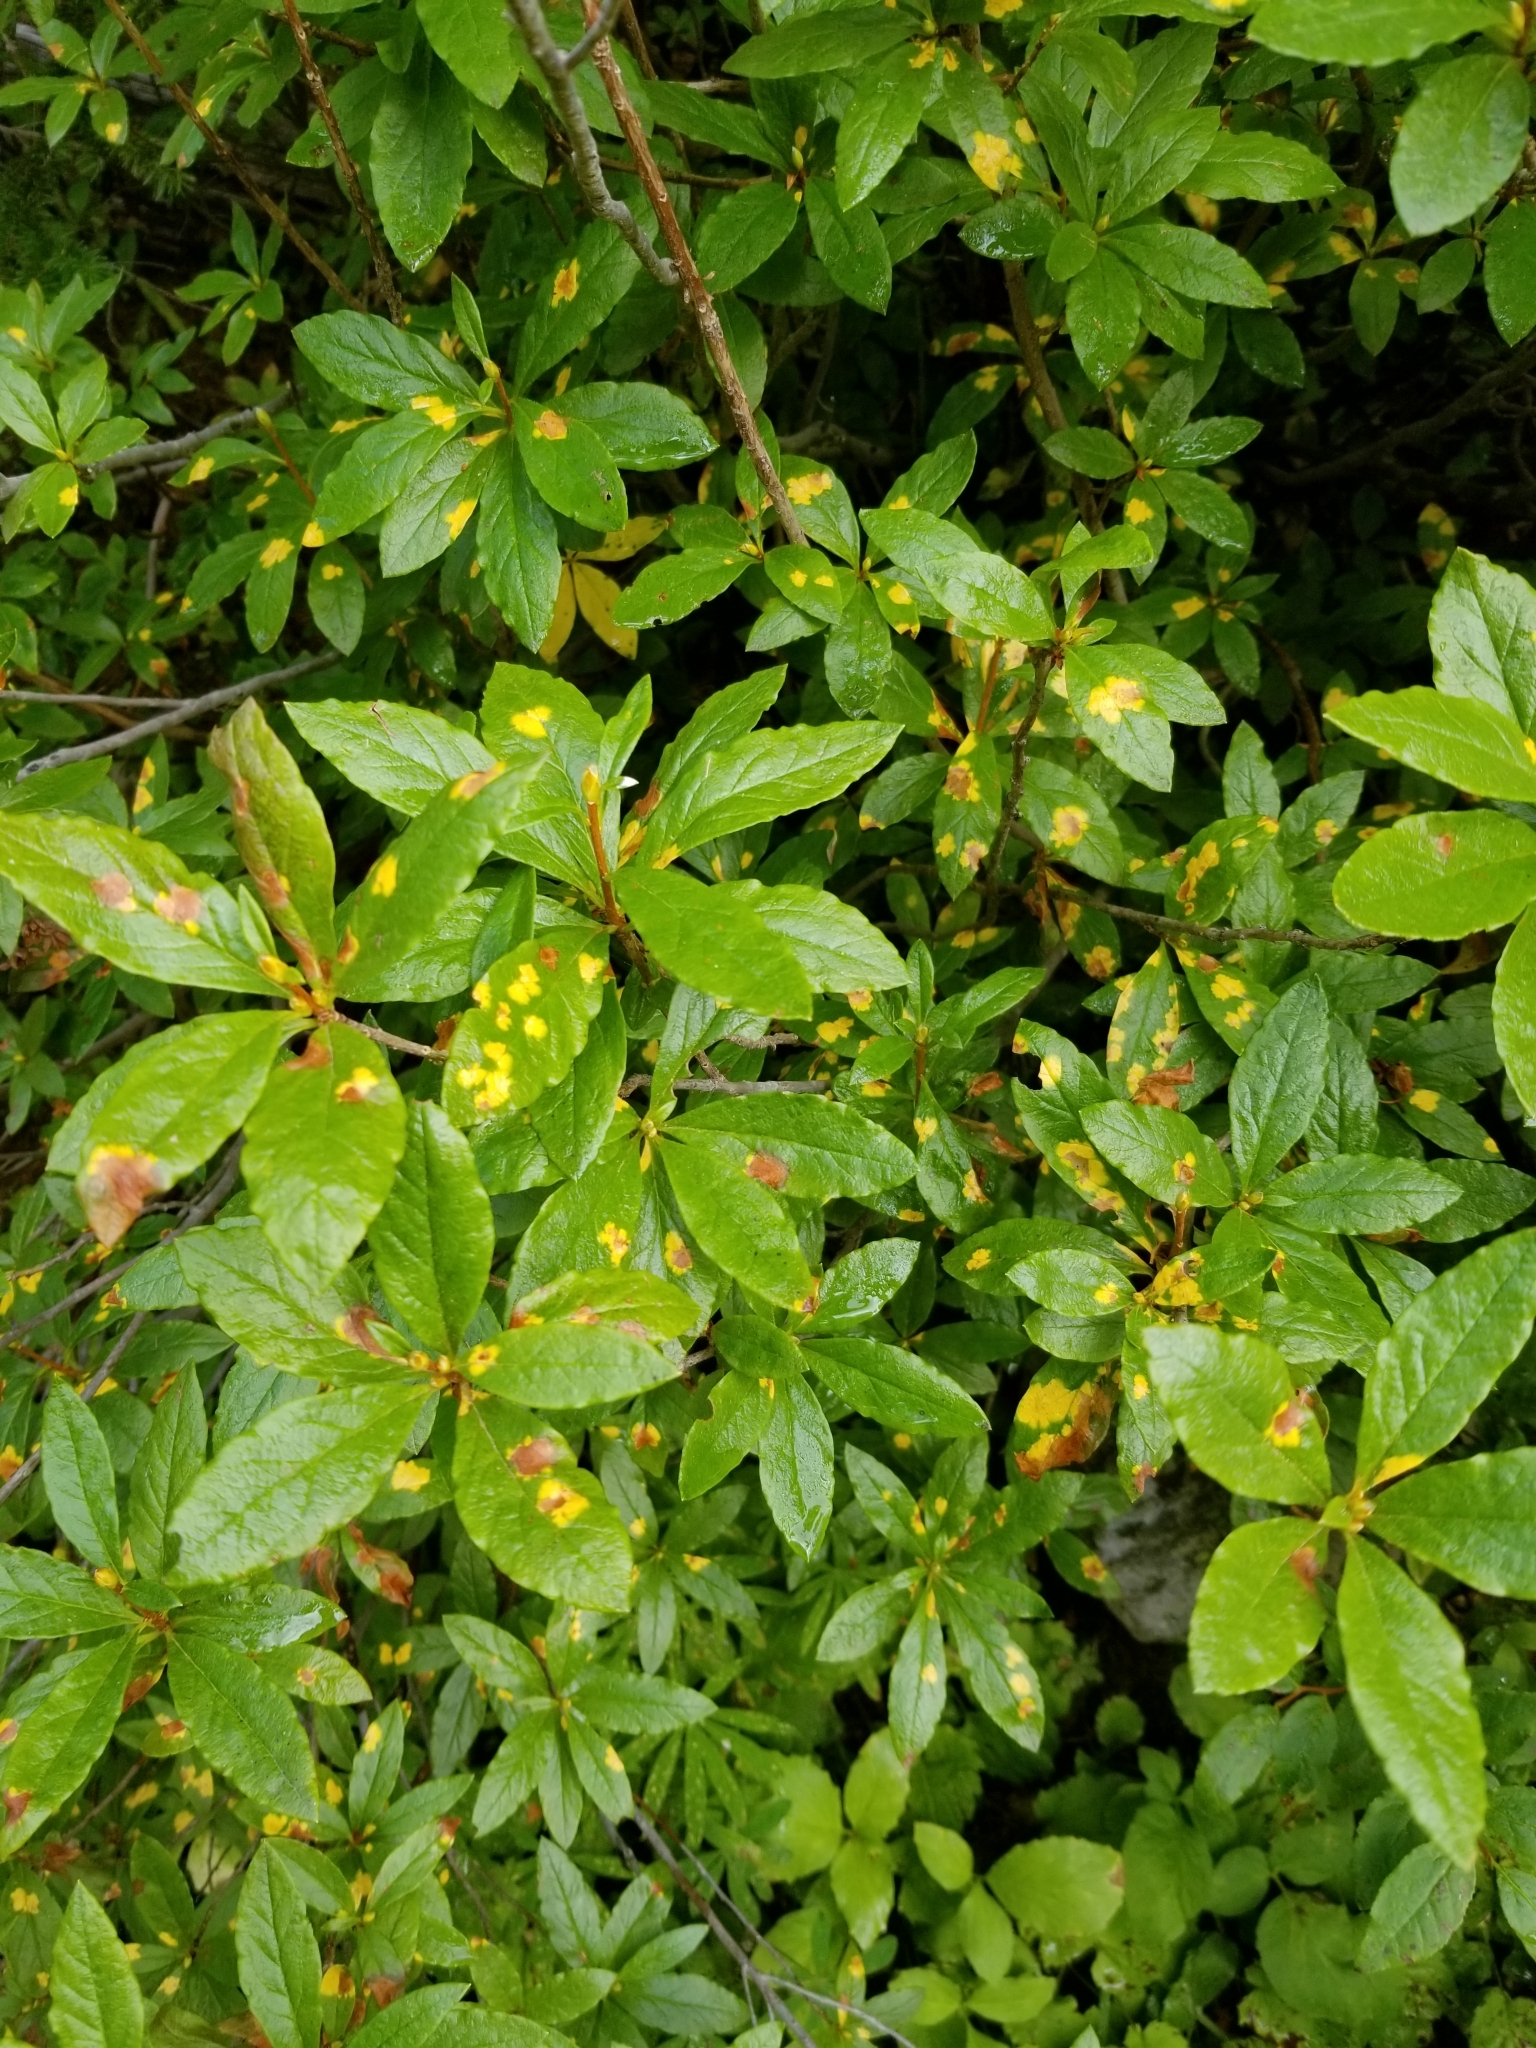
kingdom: Plantae
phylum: Tracheophyta
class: Magnoliopsida
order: Ericales
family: Ericaceae
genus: Rhododendron
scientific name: Rhododendron albiflorum
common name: White rhododendron
